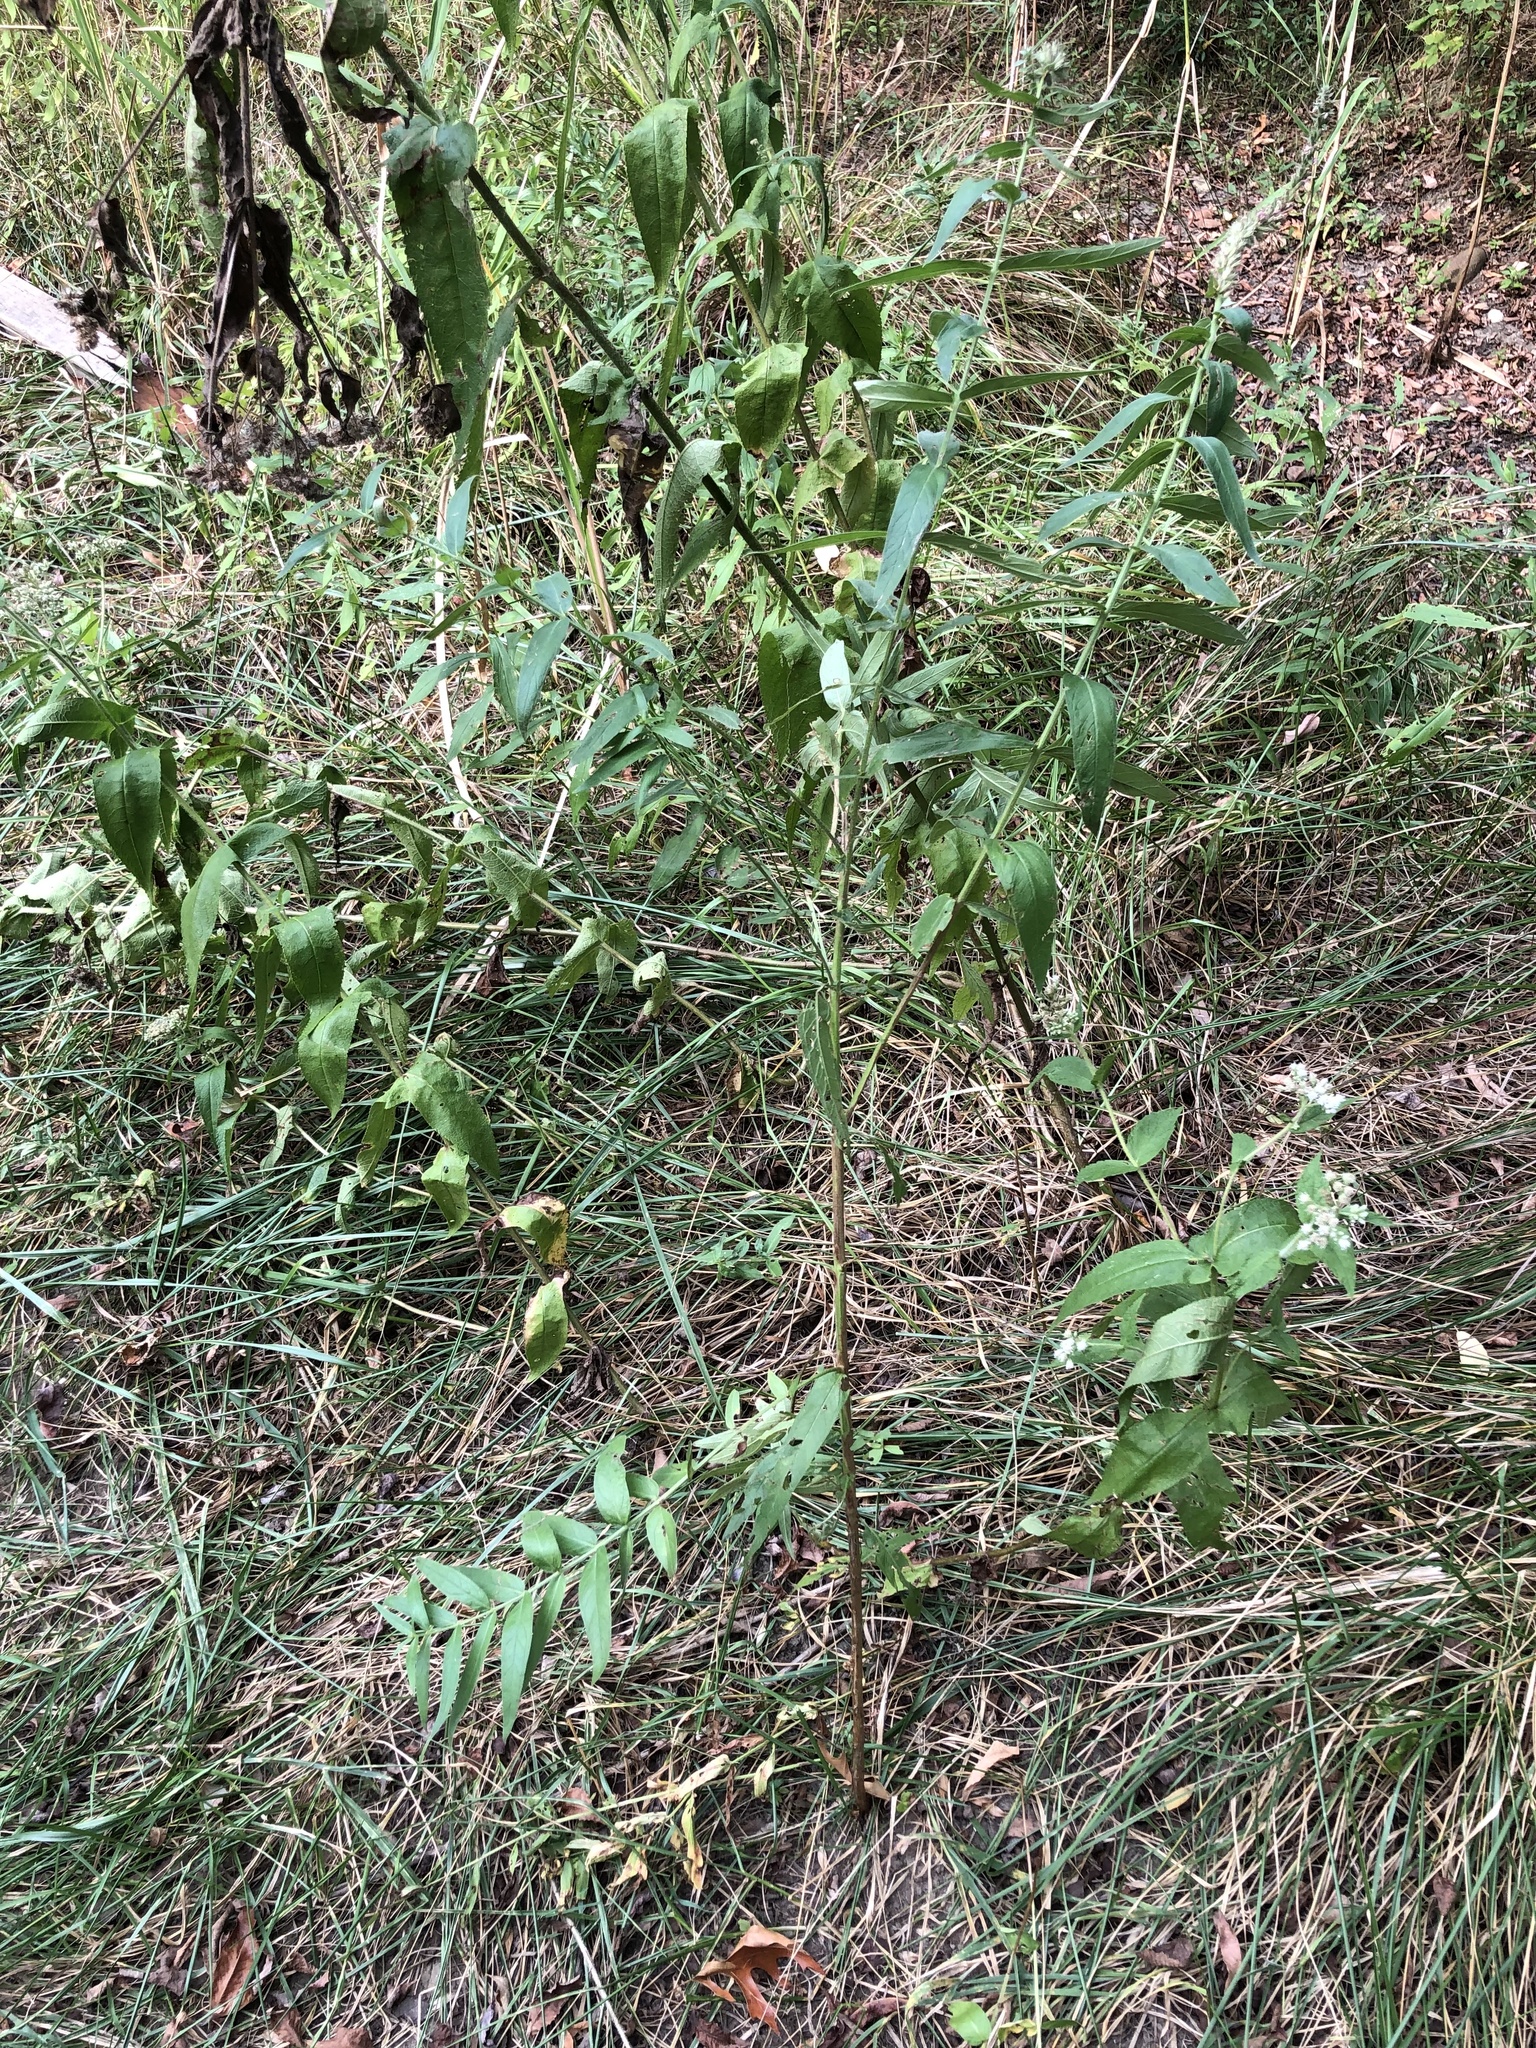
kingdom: Plantae
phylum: Tracheophyta
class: Magnoliopsida
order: Myrtales
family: Lythraceae
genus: Lythrum
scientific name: Lythrum salicaria
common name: Purple loosestrife
